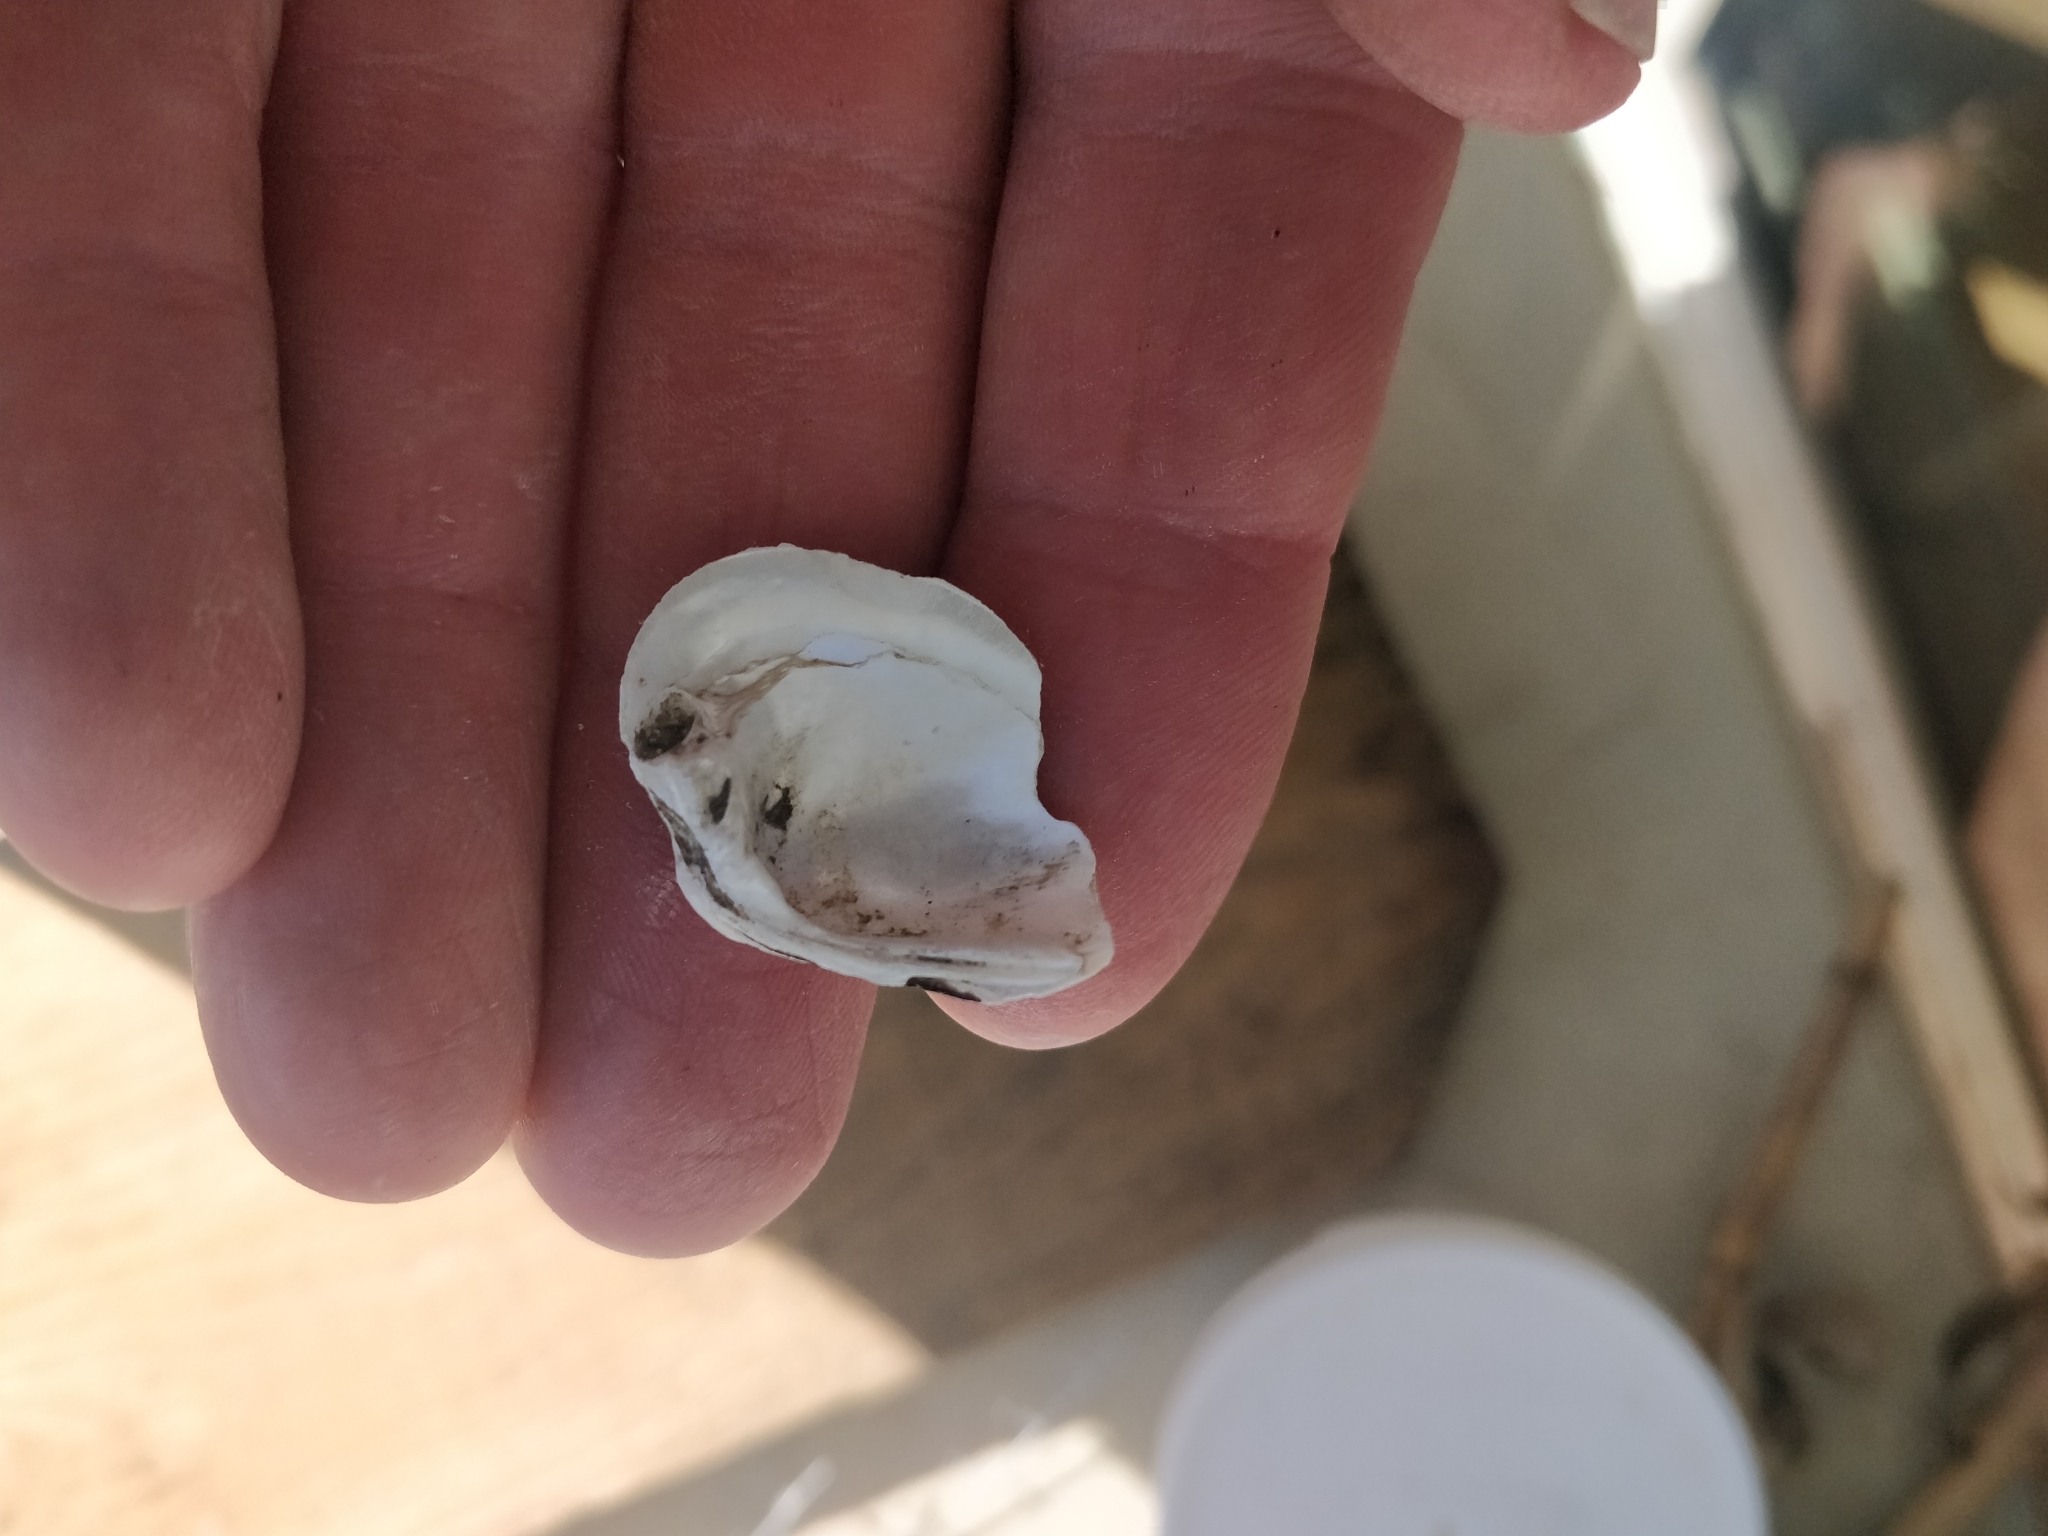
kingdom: Animalia
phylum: Mollusca
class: Bivalvia
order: Unionida
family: Unionidae
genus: Truncilla
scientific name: Truncilla truncata
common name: Deertoe
